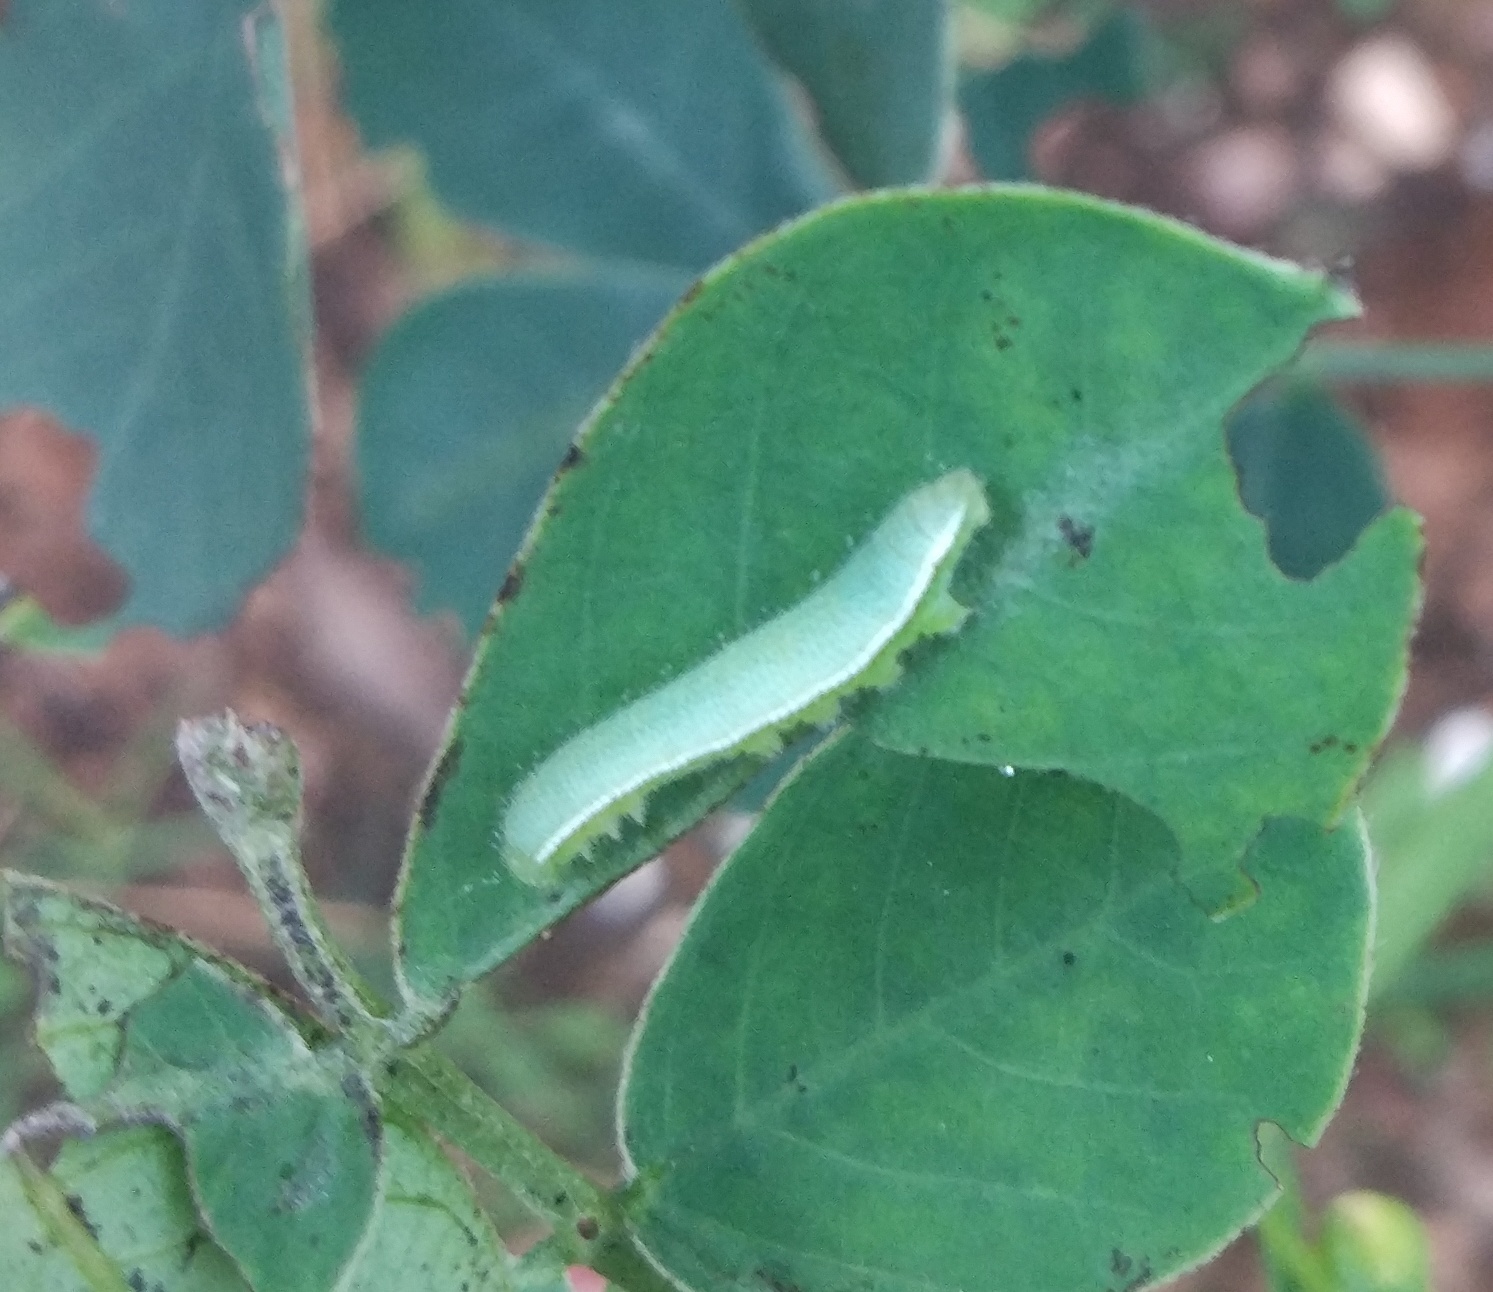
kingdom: Animalia
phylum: Arthropoda
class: Insecta
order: Lepidoptera
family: Pieridae
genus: Catopsilia
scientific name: Catopsilia pyranthe
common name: Mottled emigrant
